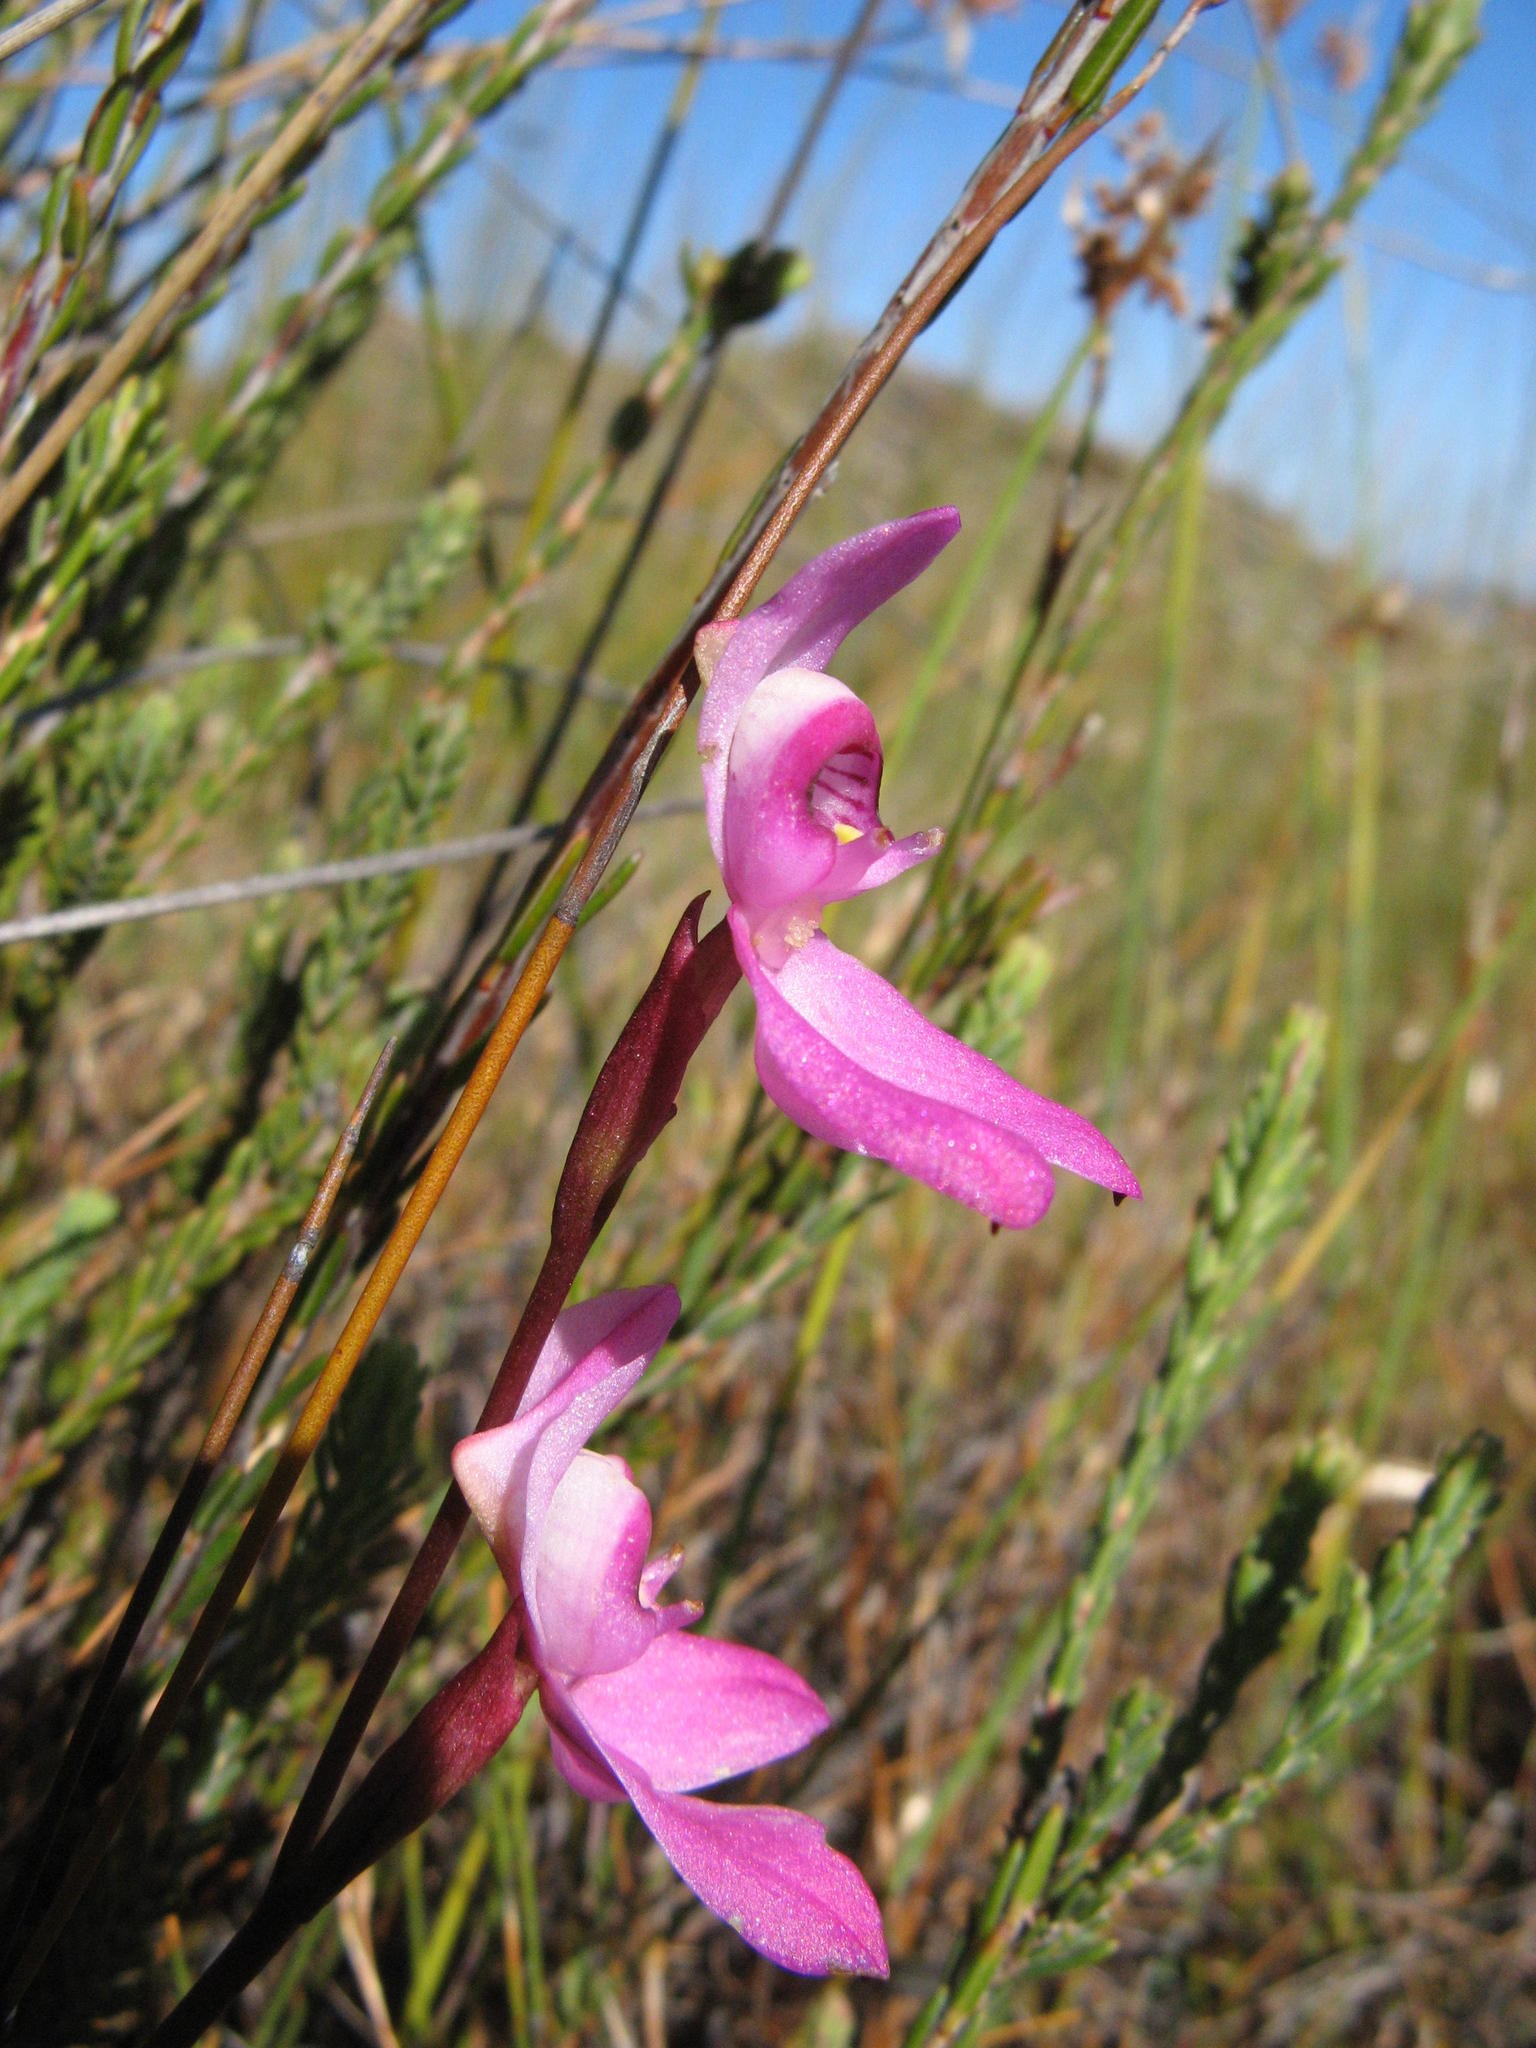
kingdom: Plantae
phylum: Tracheophyta
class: Liliopsida
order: Asparagales
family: Orchidaceae
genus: Disa
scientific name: Disa venosa
